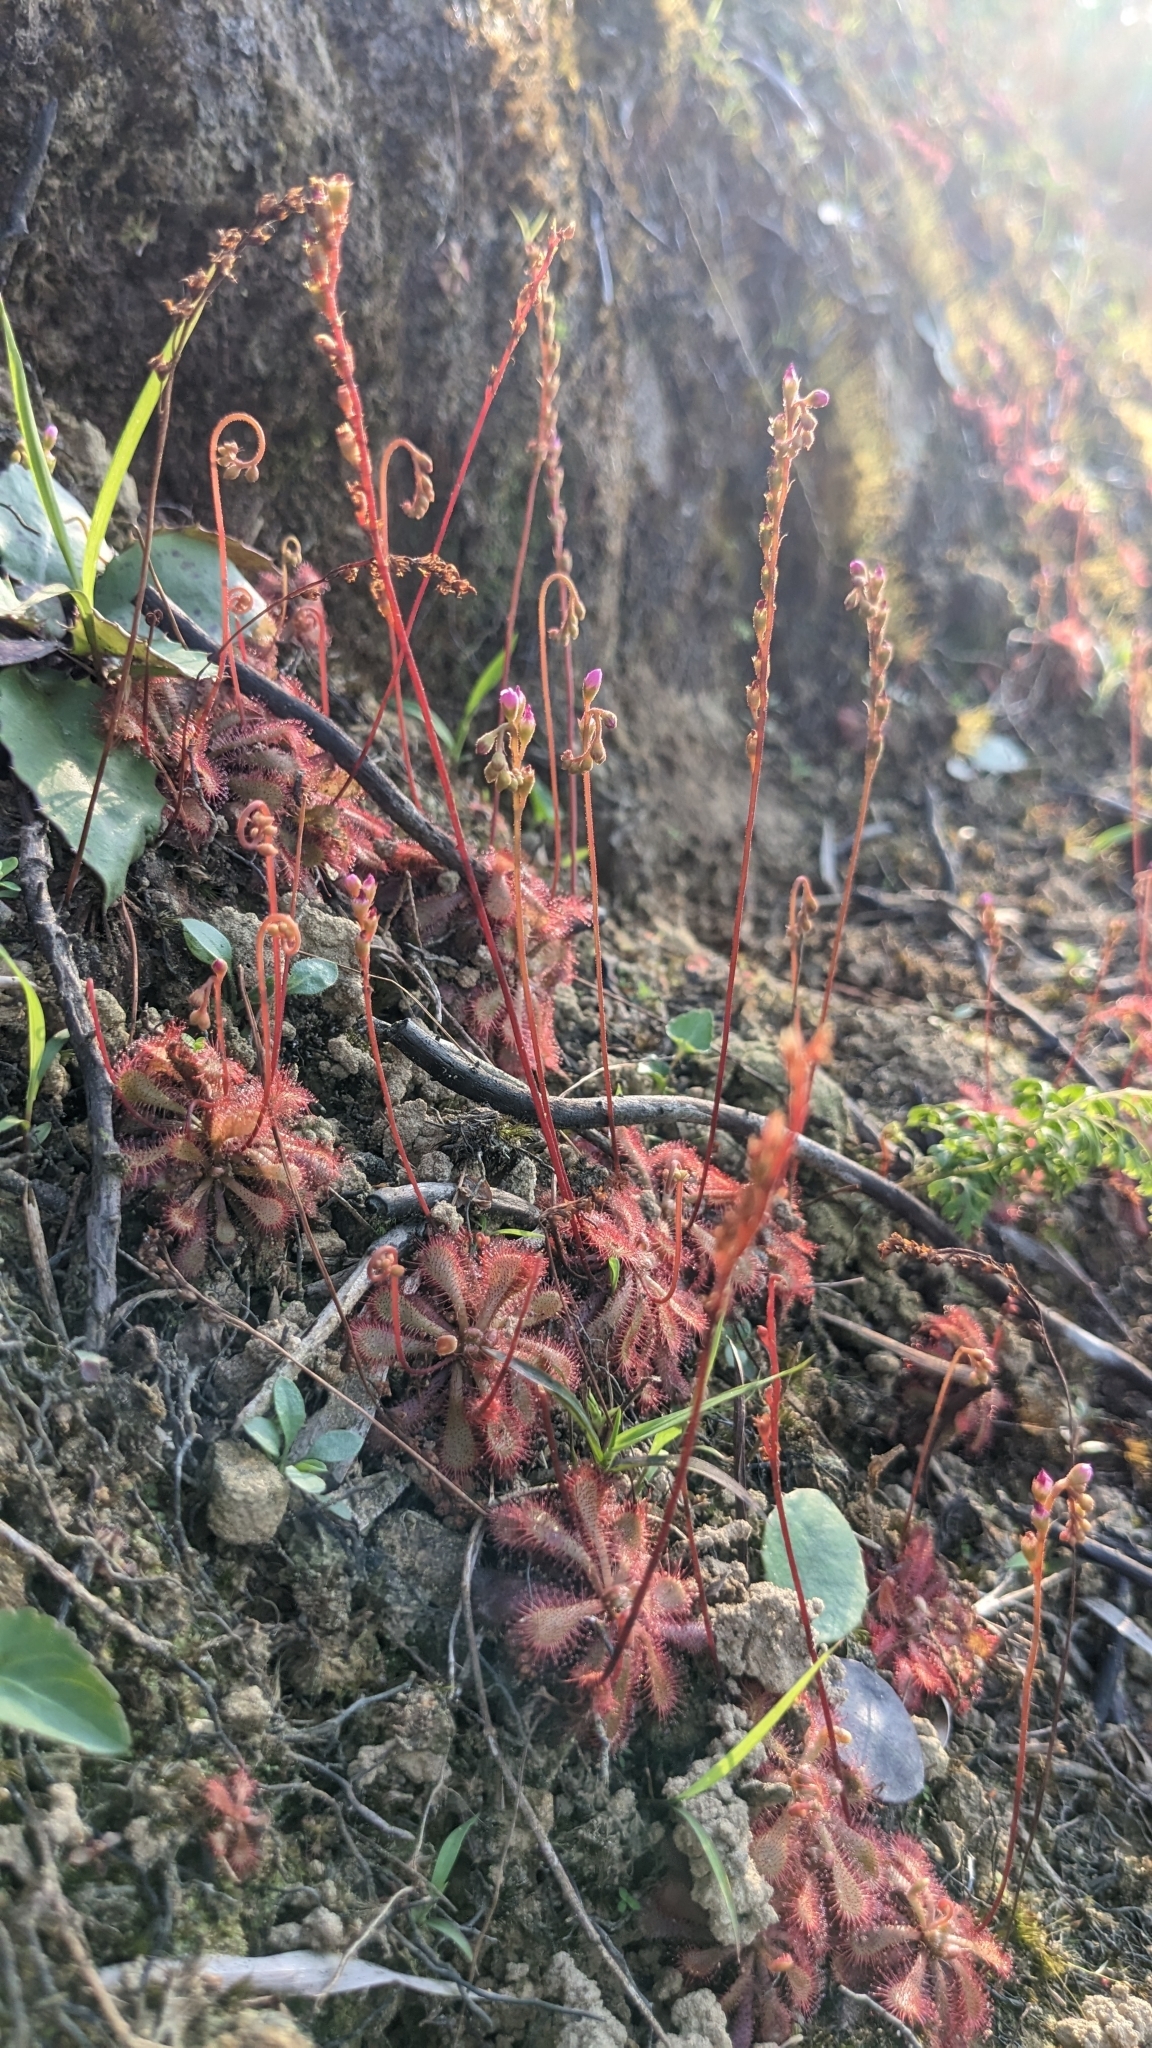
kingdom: Plantae
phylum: Tracheophyta
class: Magnoliopsida
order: Caryophyllales
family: Droseraceae
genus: Drosera
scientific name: Drosera spatulata
